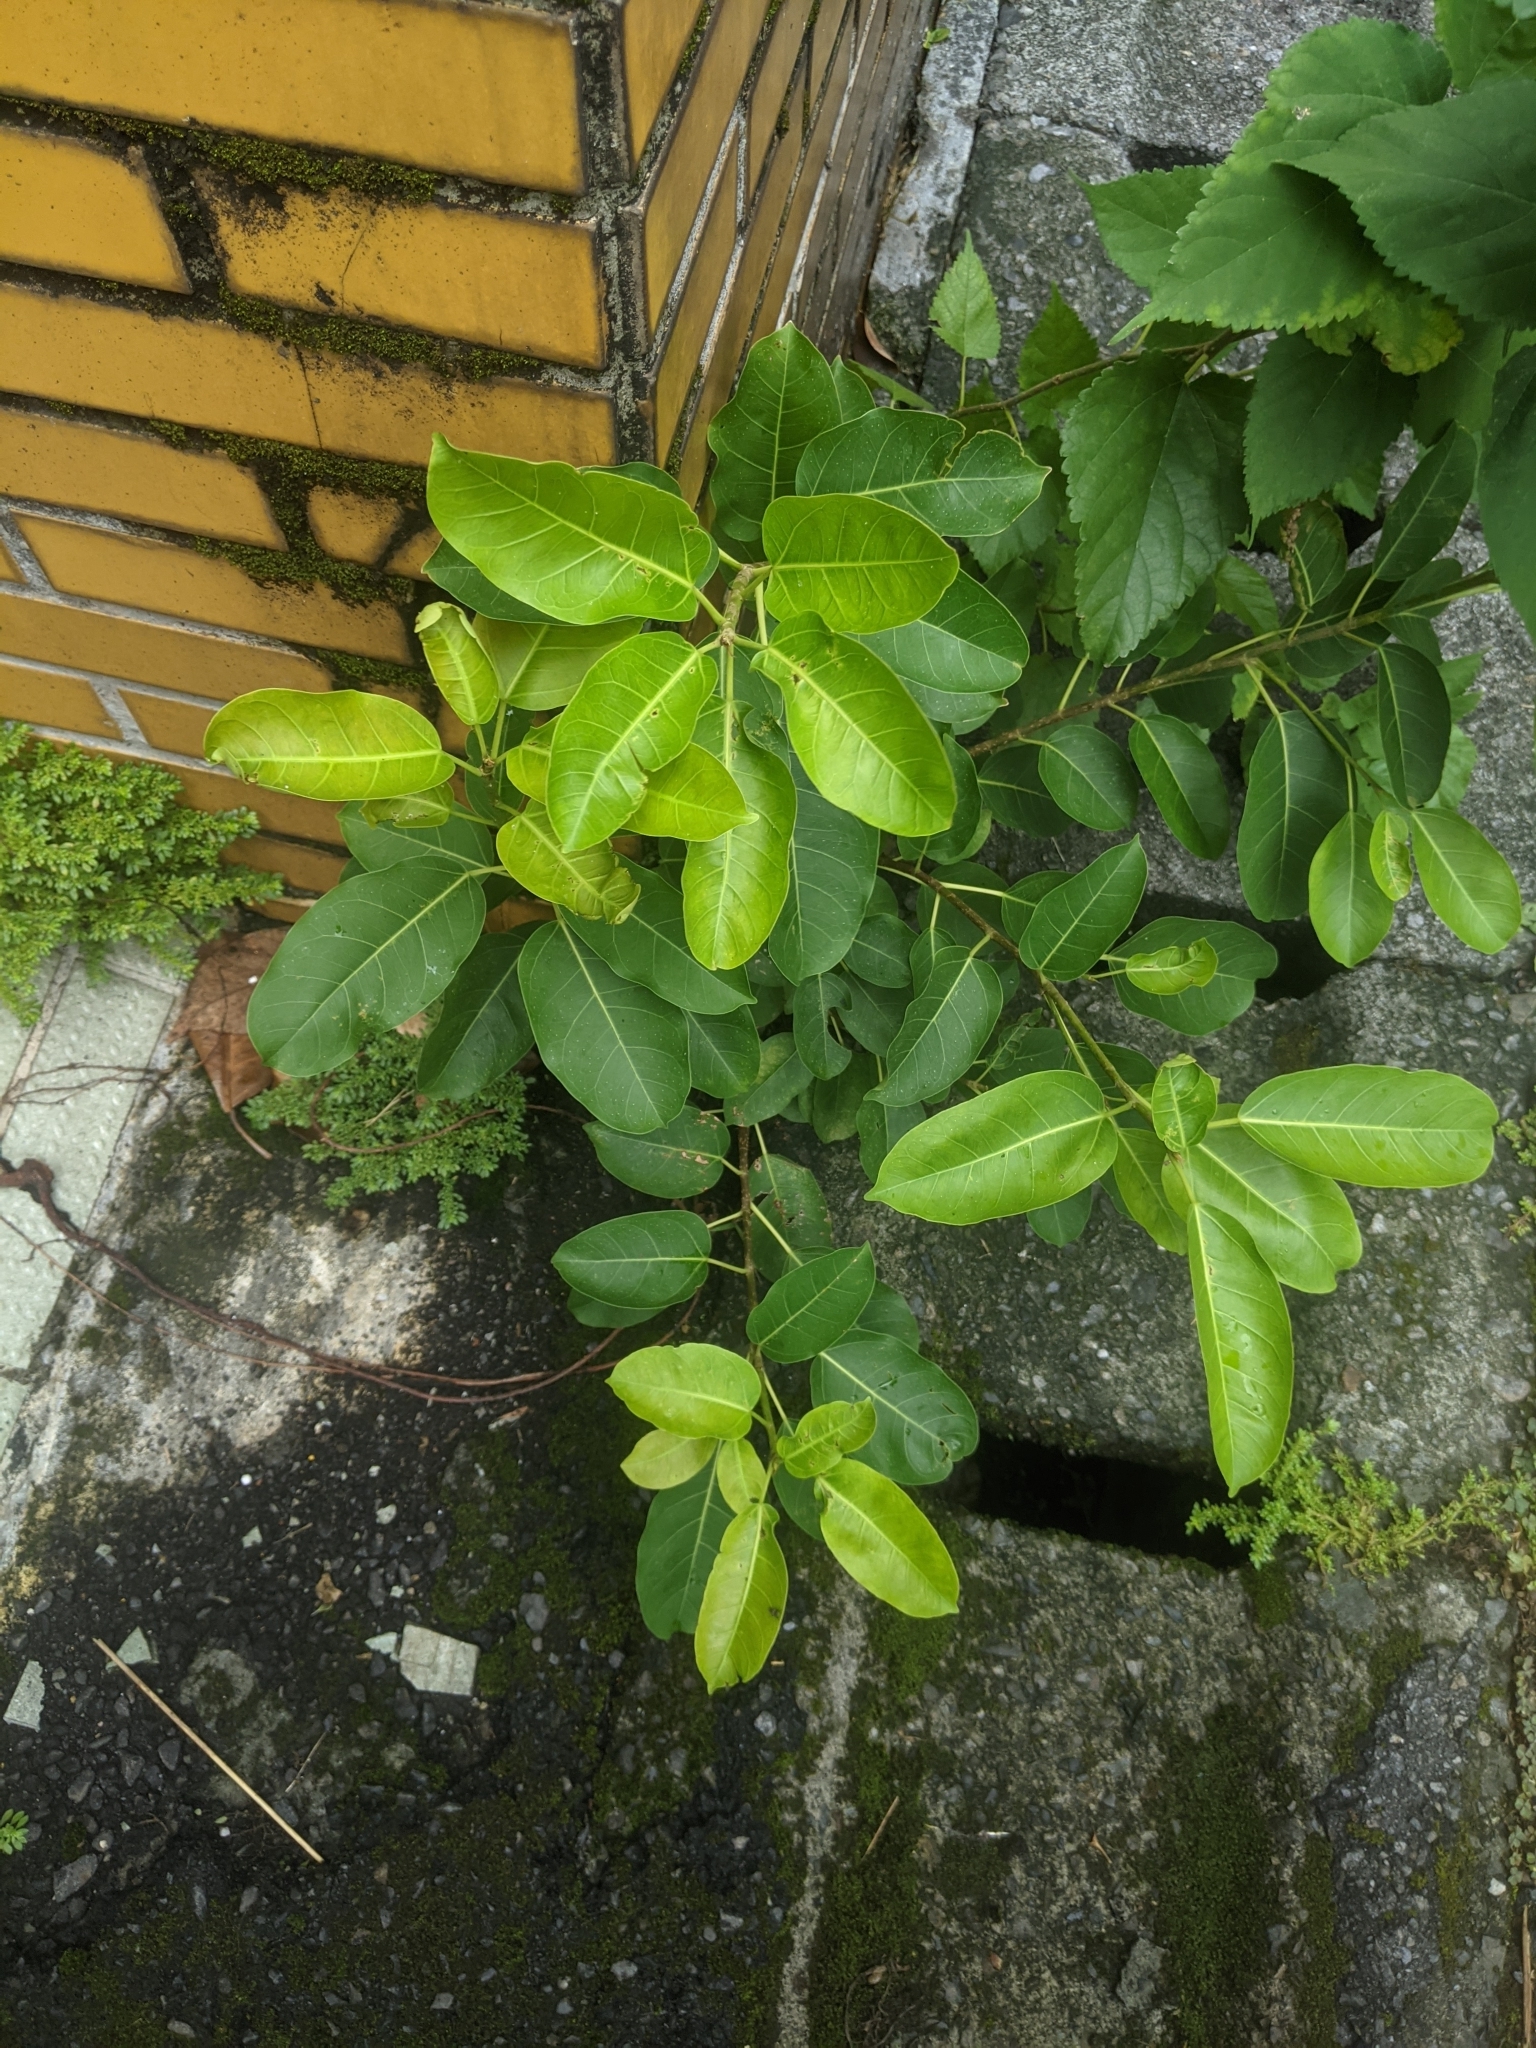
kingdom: Plantae
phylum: Tracheophyta
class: Magnoliopsida
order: Rosales
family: Moraceae
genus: Ficus
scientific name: Ficus subpisocarpa
